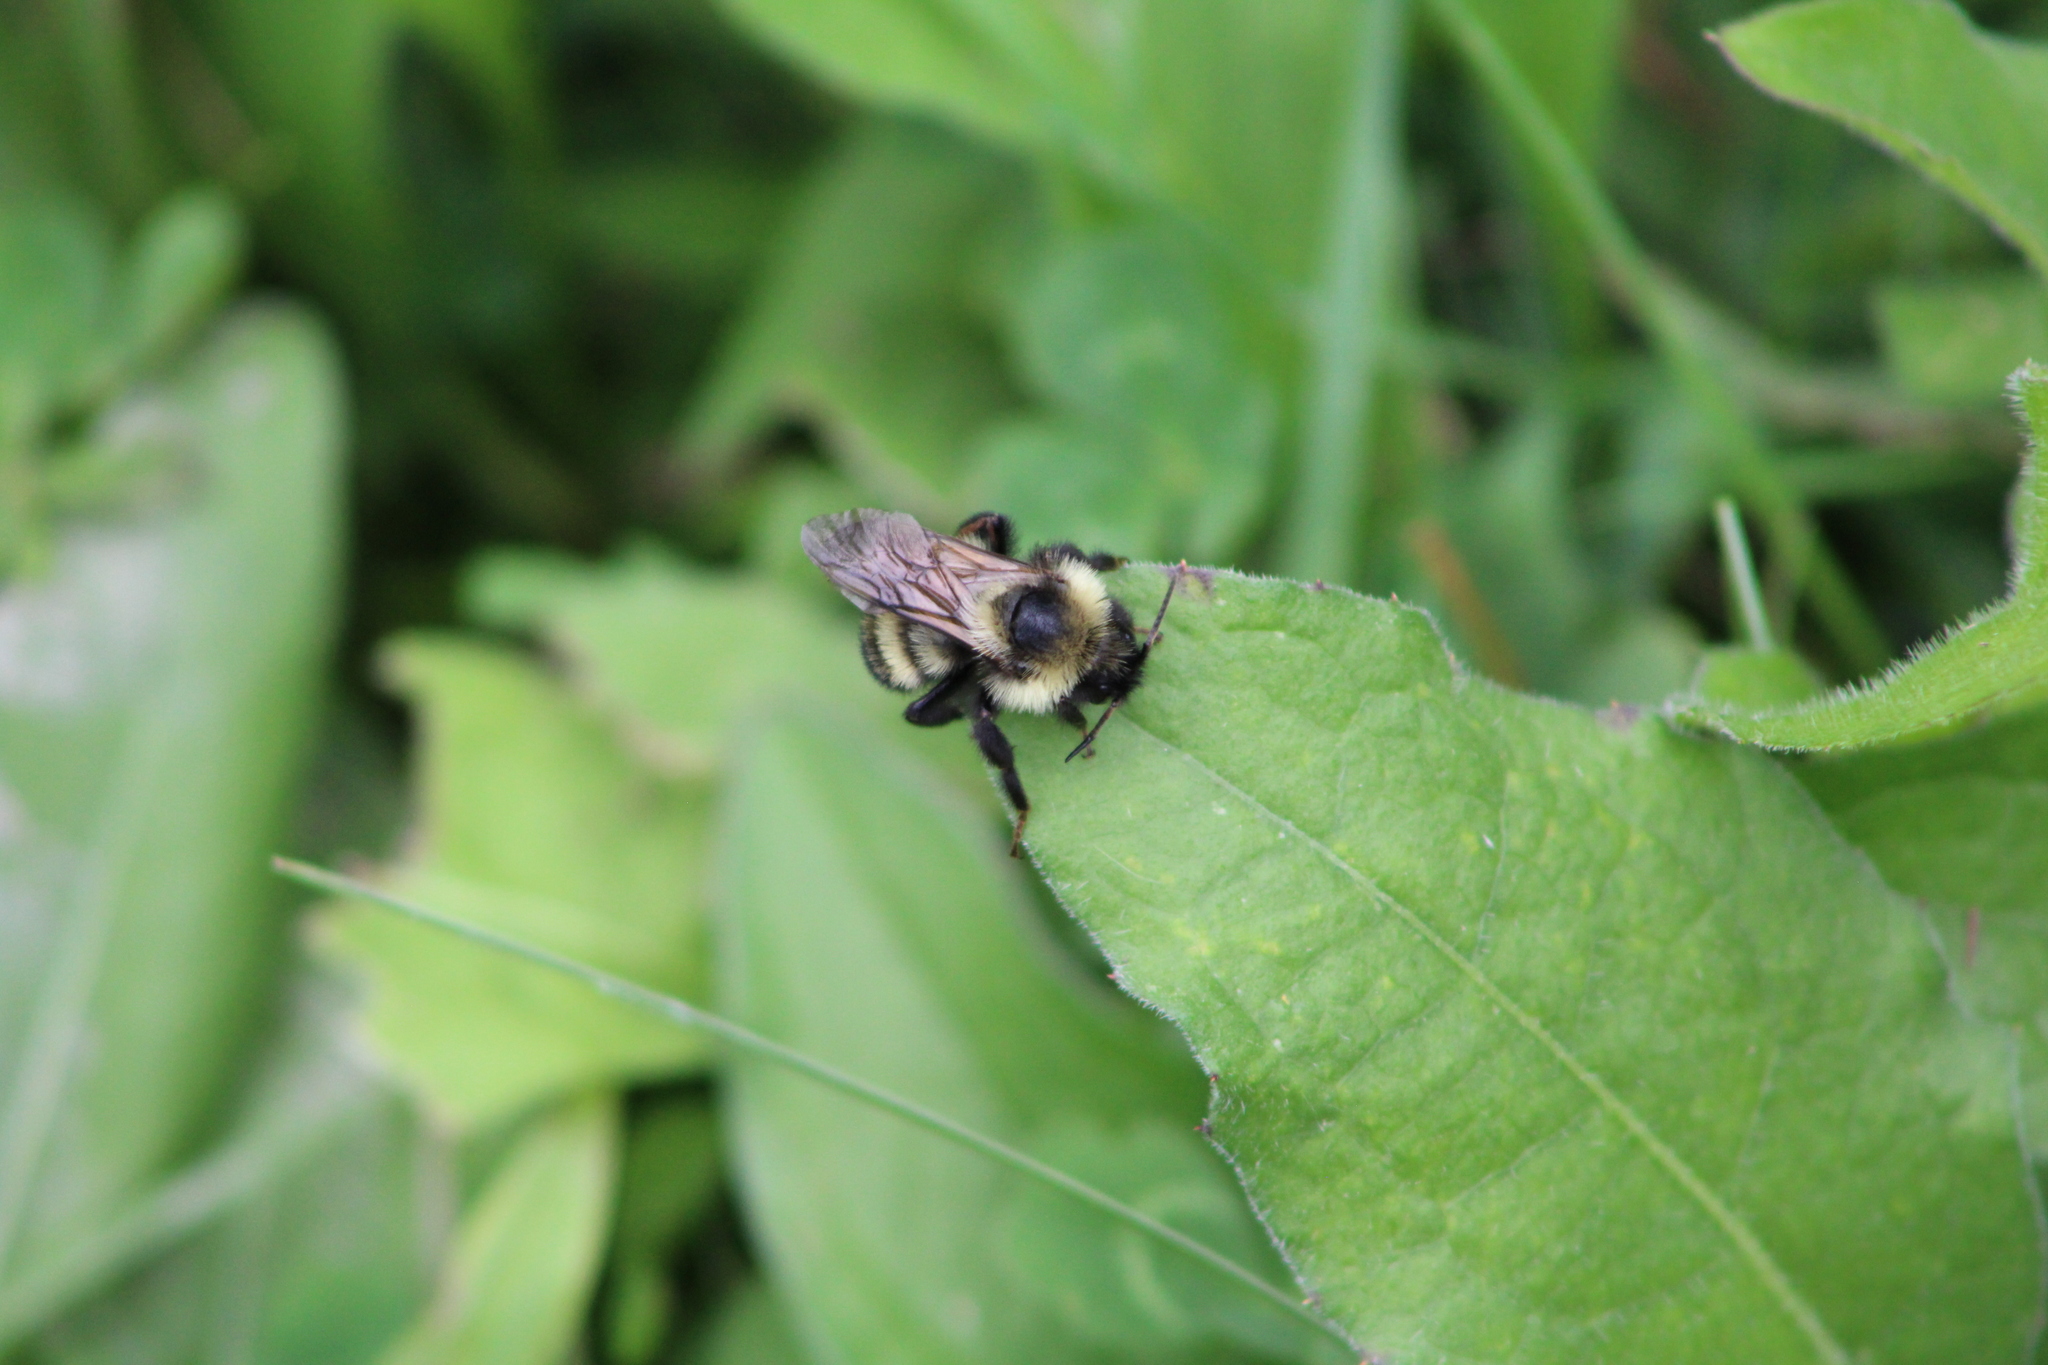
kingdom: Animalia
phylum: Arthropoda
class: Insecta
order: Hymenoptera
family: Apidae
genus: Bombus
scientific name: Bombus citrinus
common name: Lemon cuckoo bumble bee
